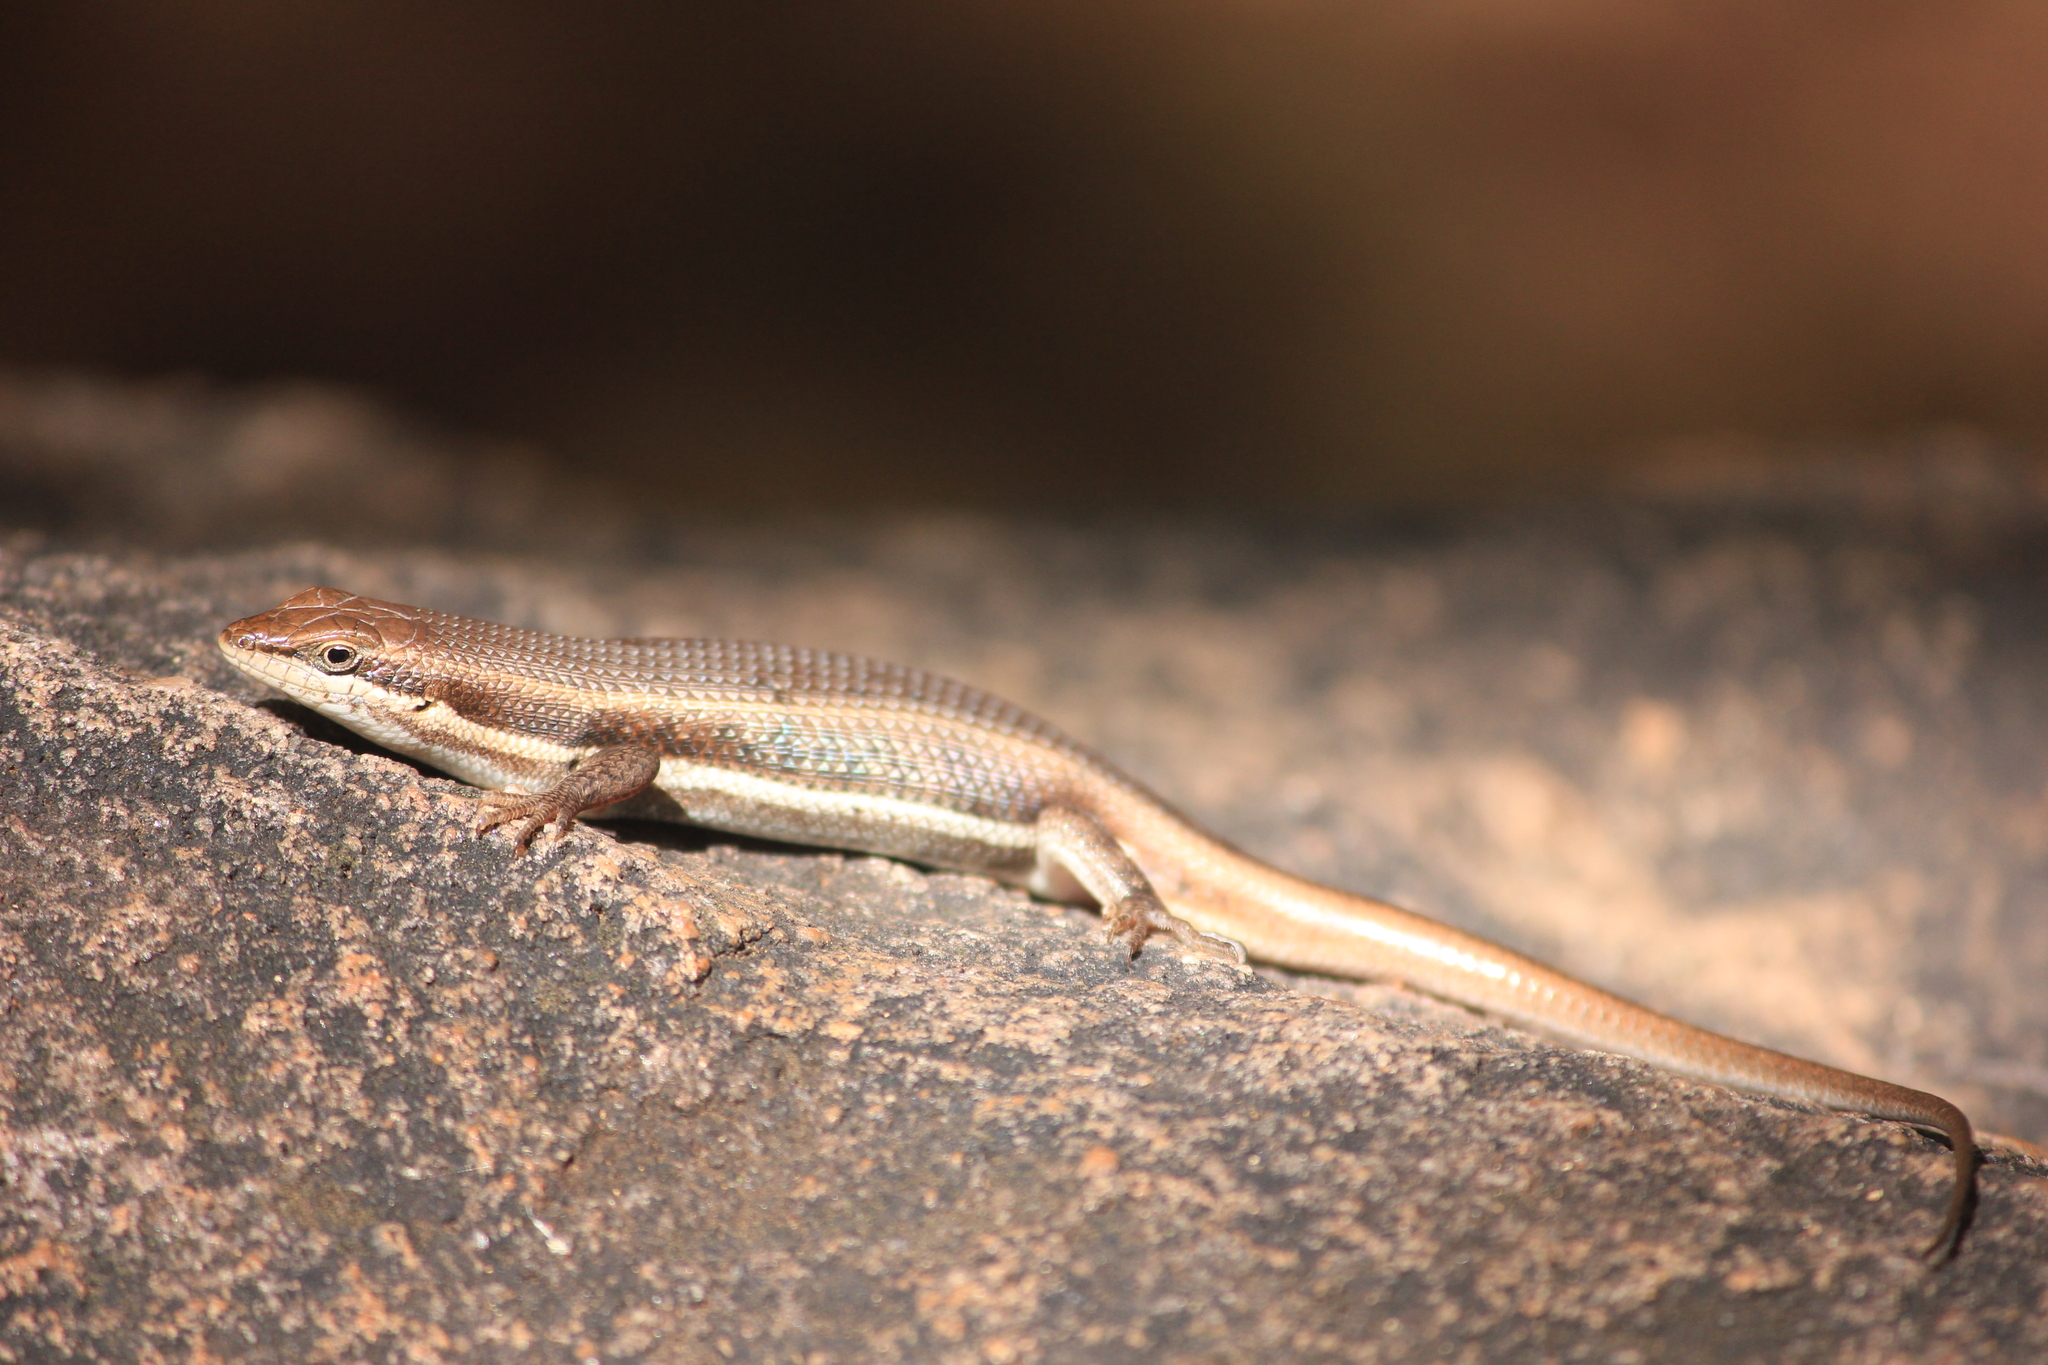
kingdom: Animalia
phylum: Chordata
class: Squamata
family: Scincidae
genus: Trachylepis
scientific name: Trachylepis damarana
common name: Damara skink
